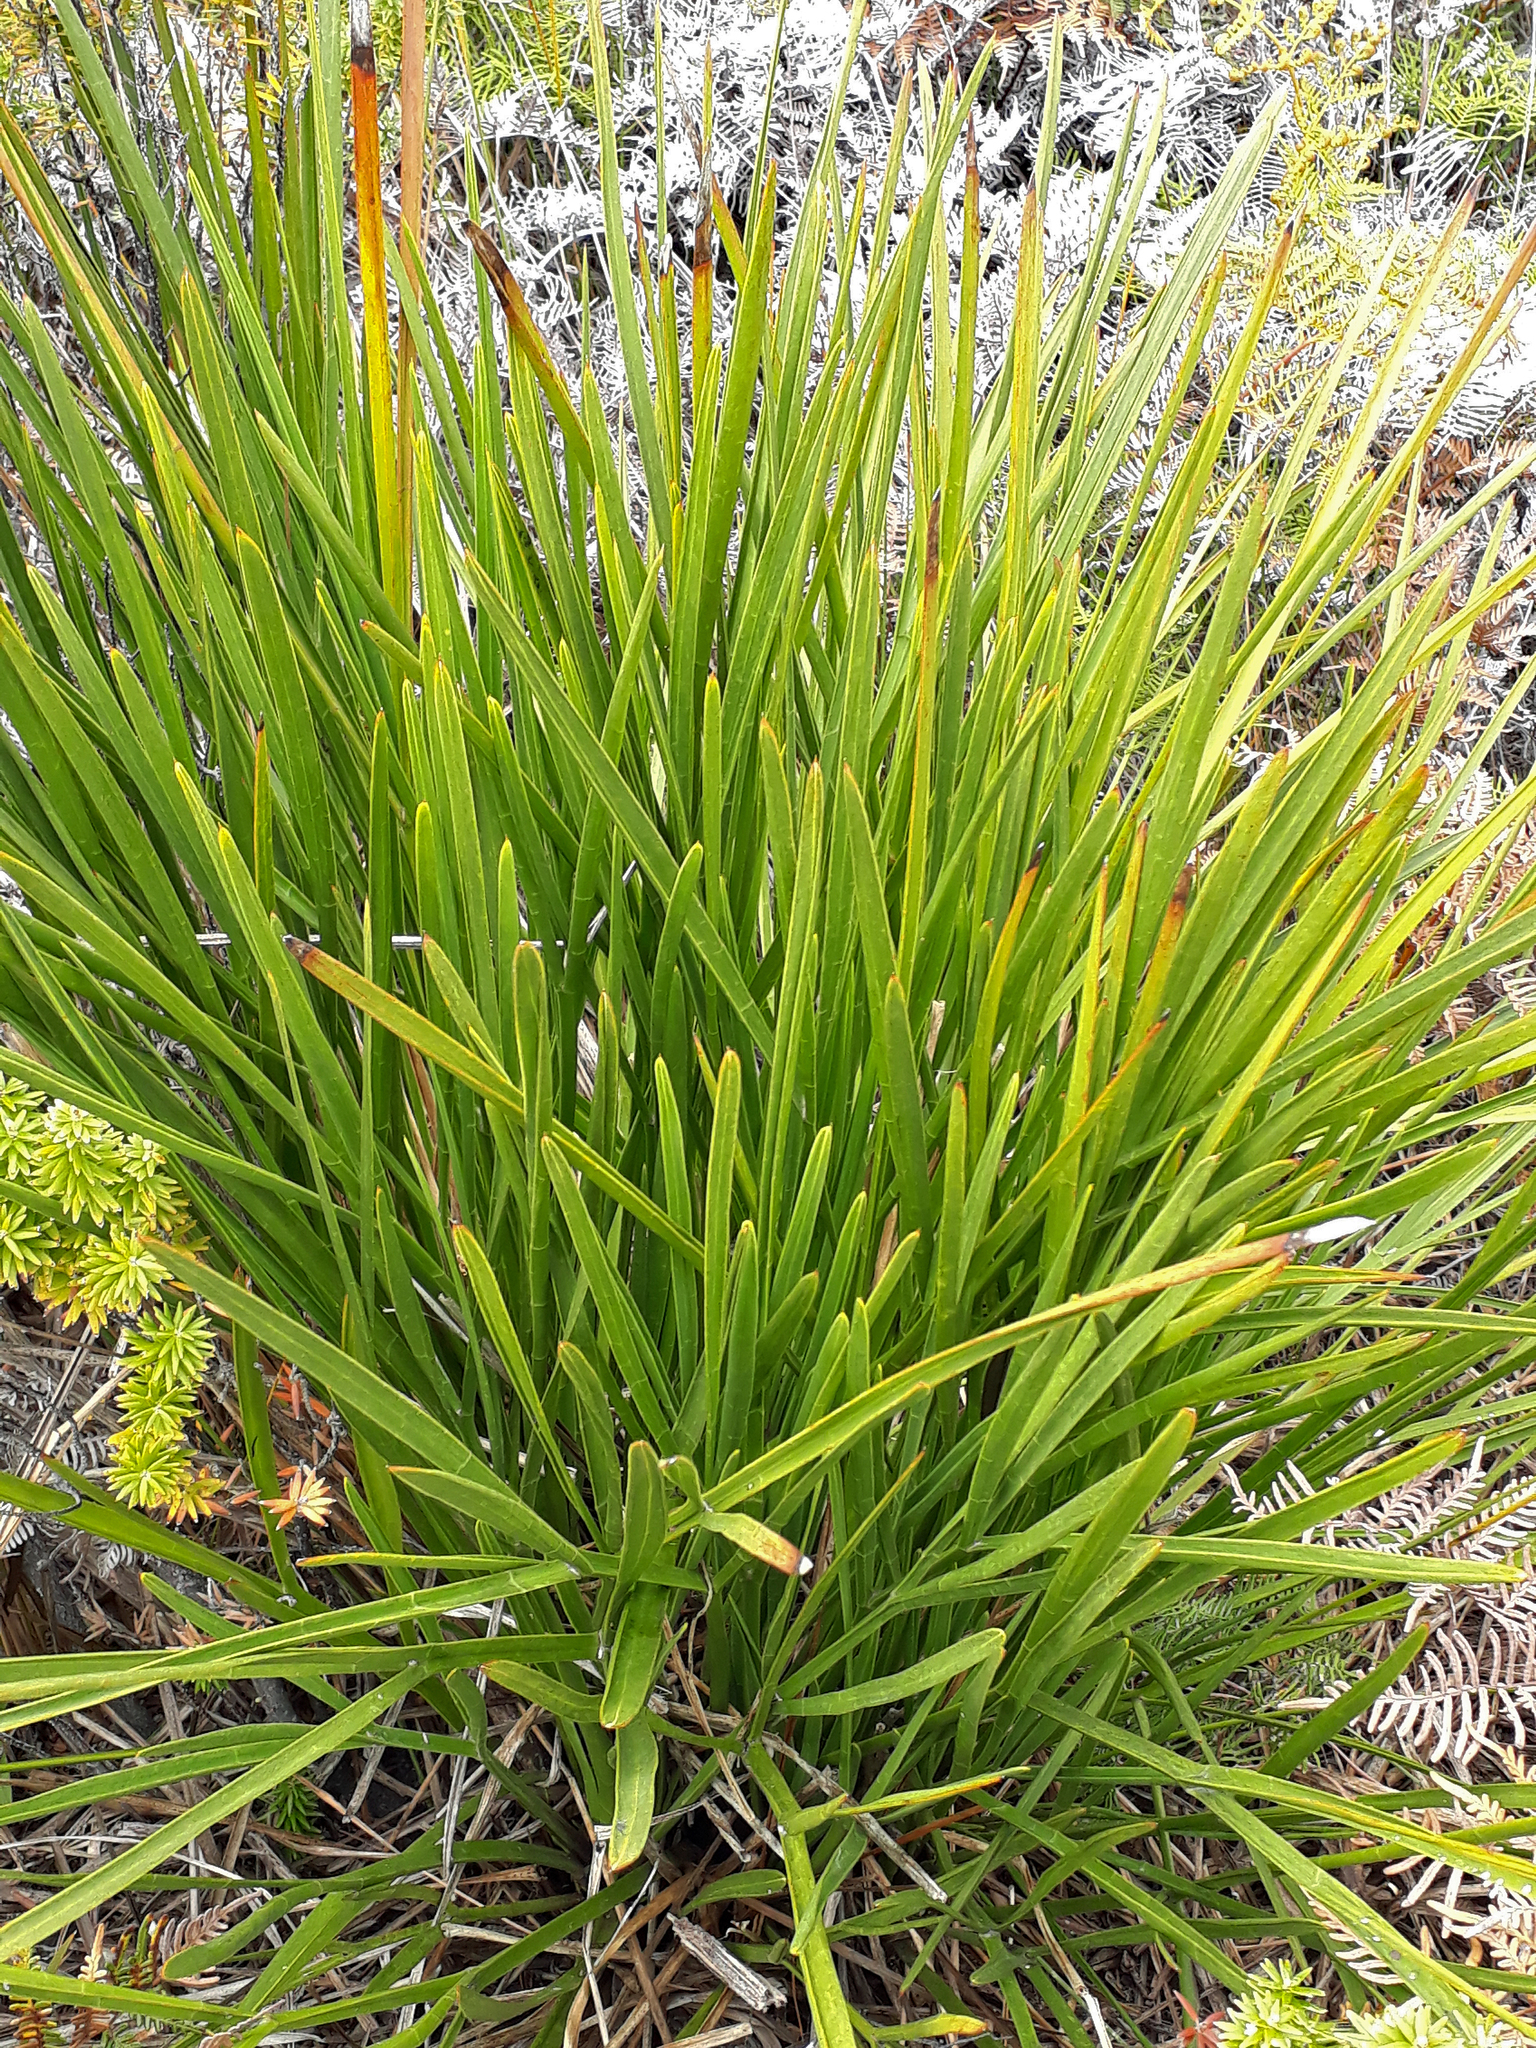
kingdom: Plantae
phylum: Tracheophyta
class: Magnoliopsida
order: Apiales
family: Apiaceae
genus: Aciphylla
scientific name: Aciphylla traversii
